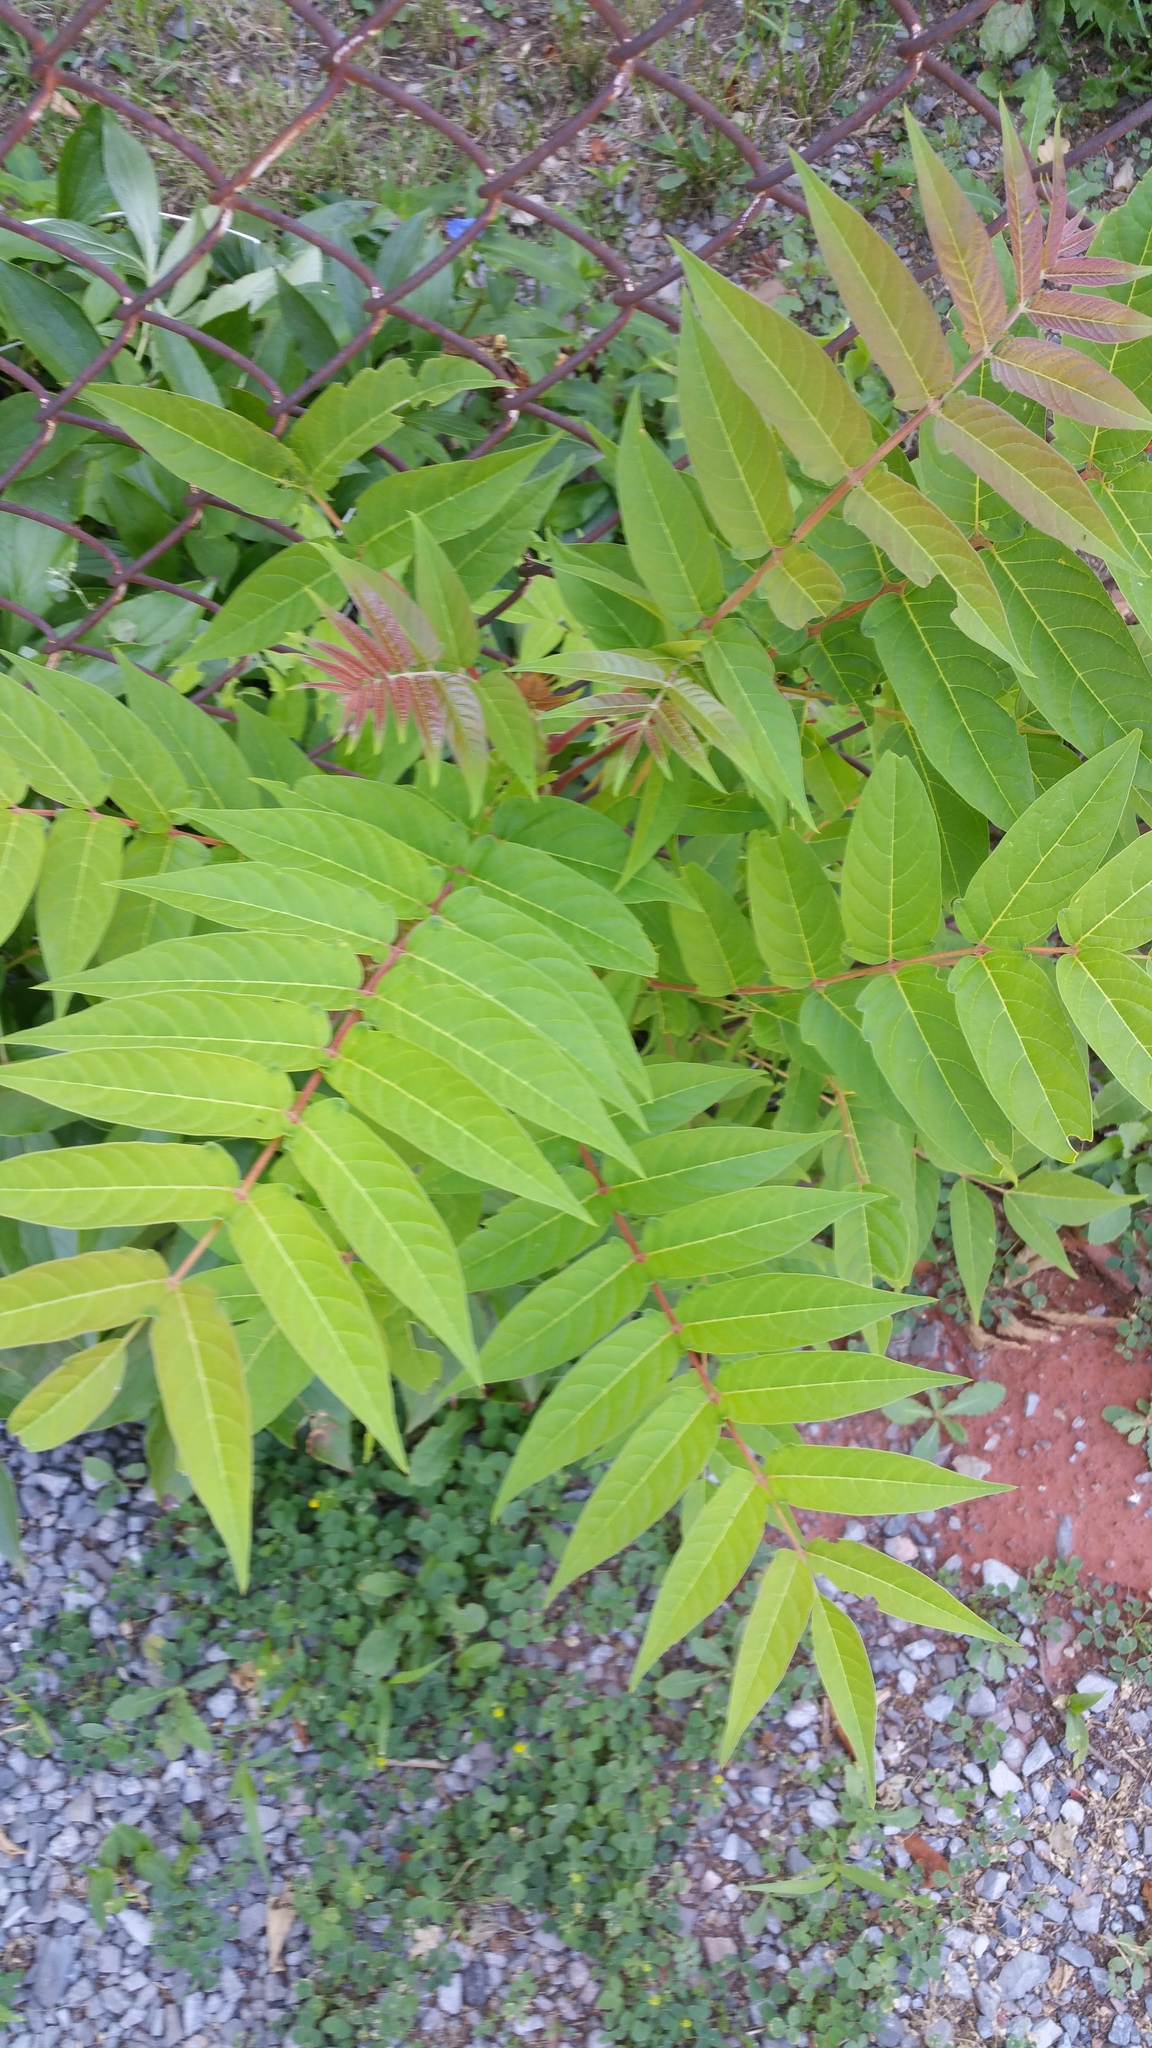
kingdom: Plantae
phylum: Tracheophyta
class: Magnoliopsida
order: Sapindales
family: Simaroubaceae
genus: Ailanthus
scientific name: Ailanthus altissima
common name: Tree-of-heaven
